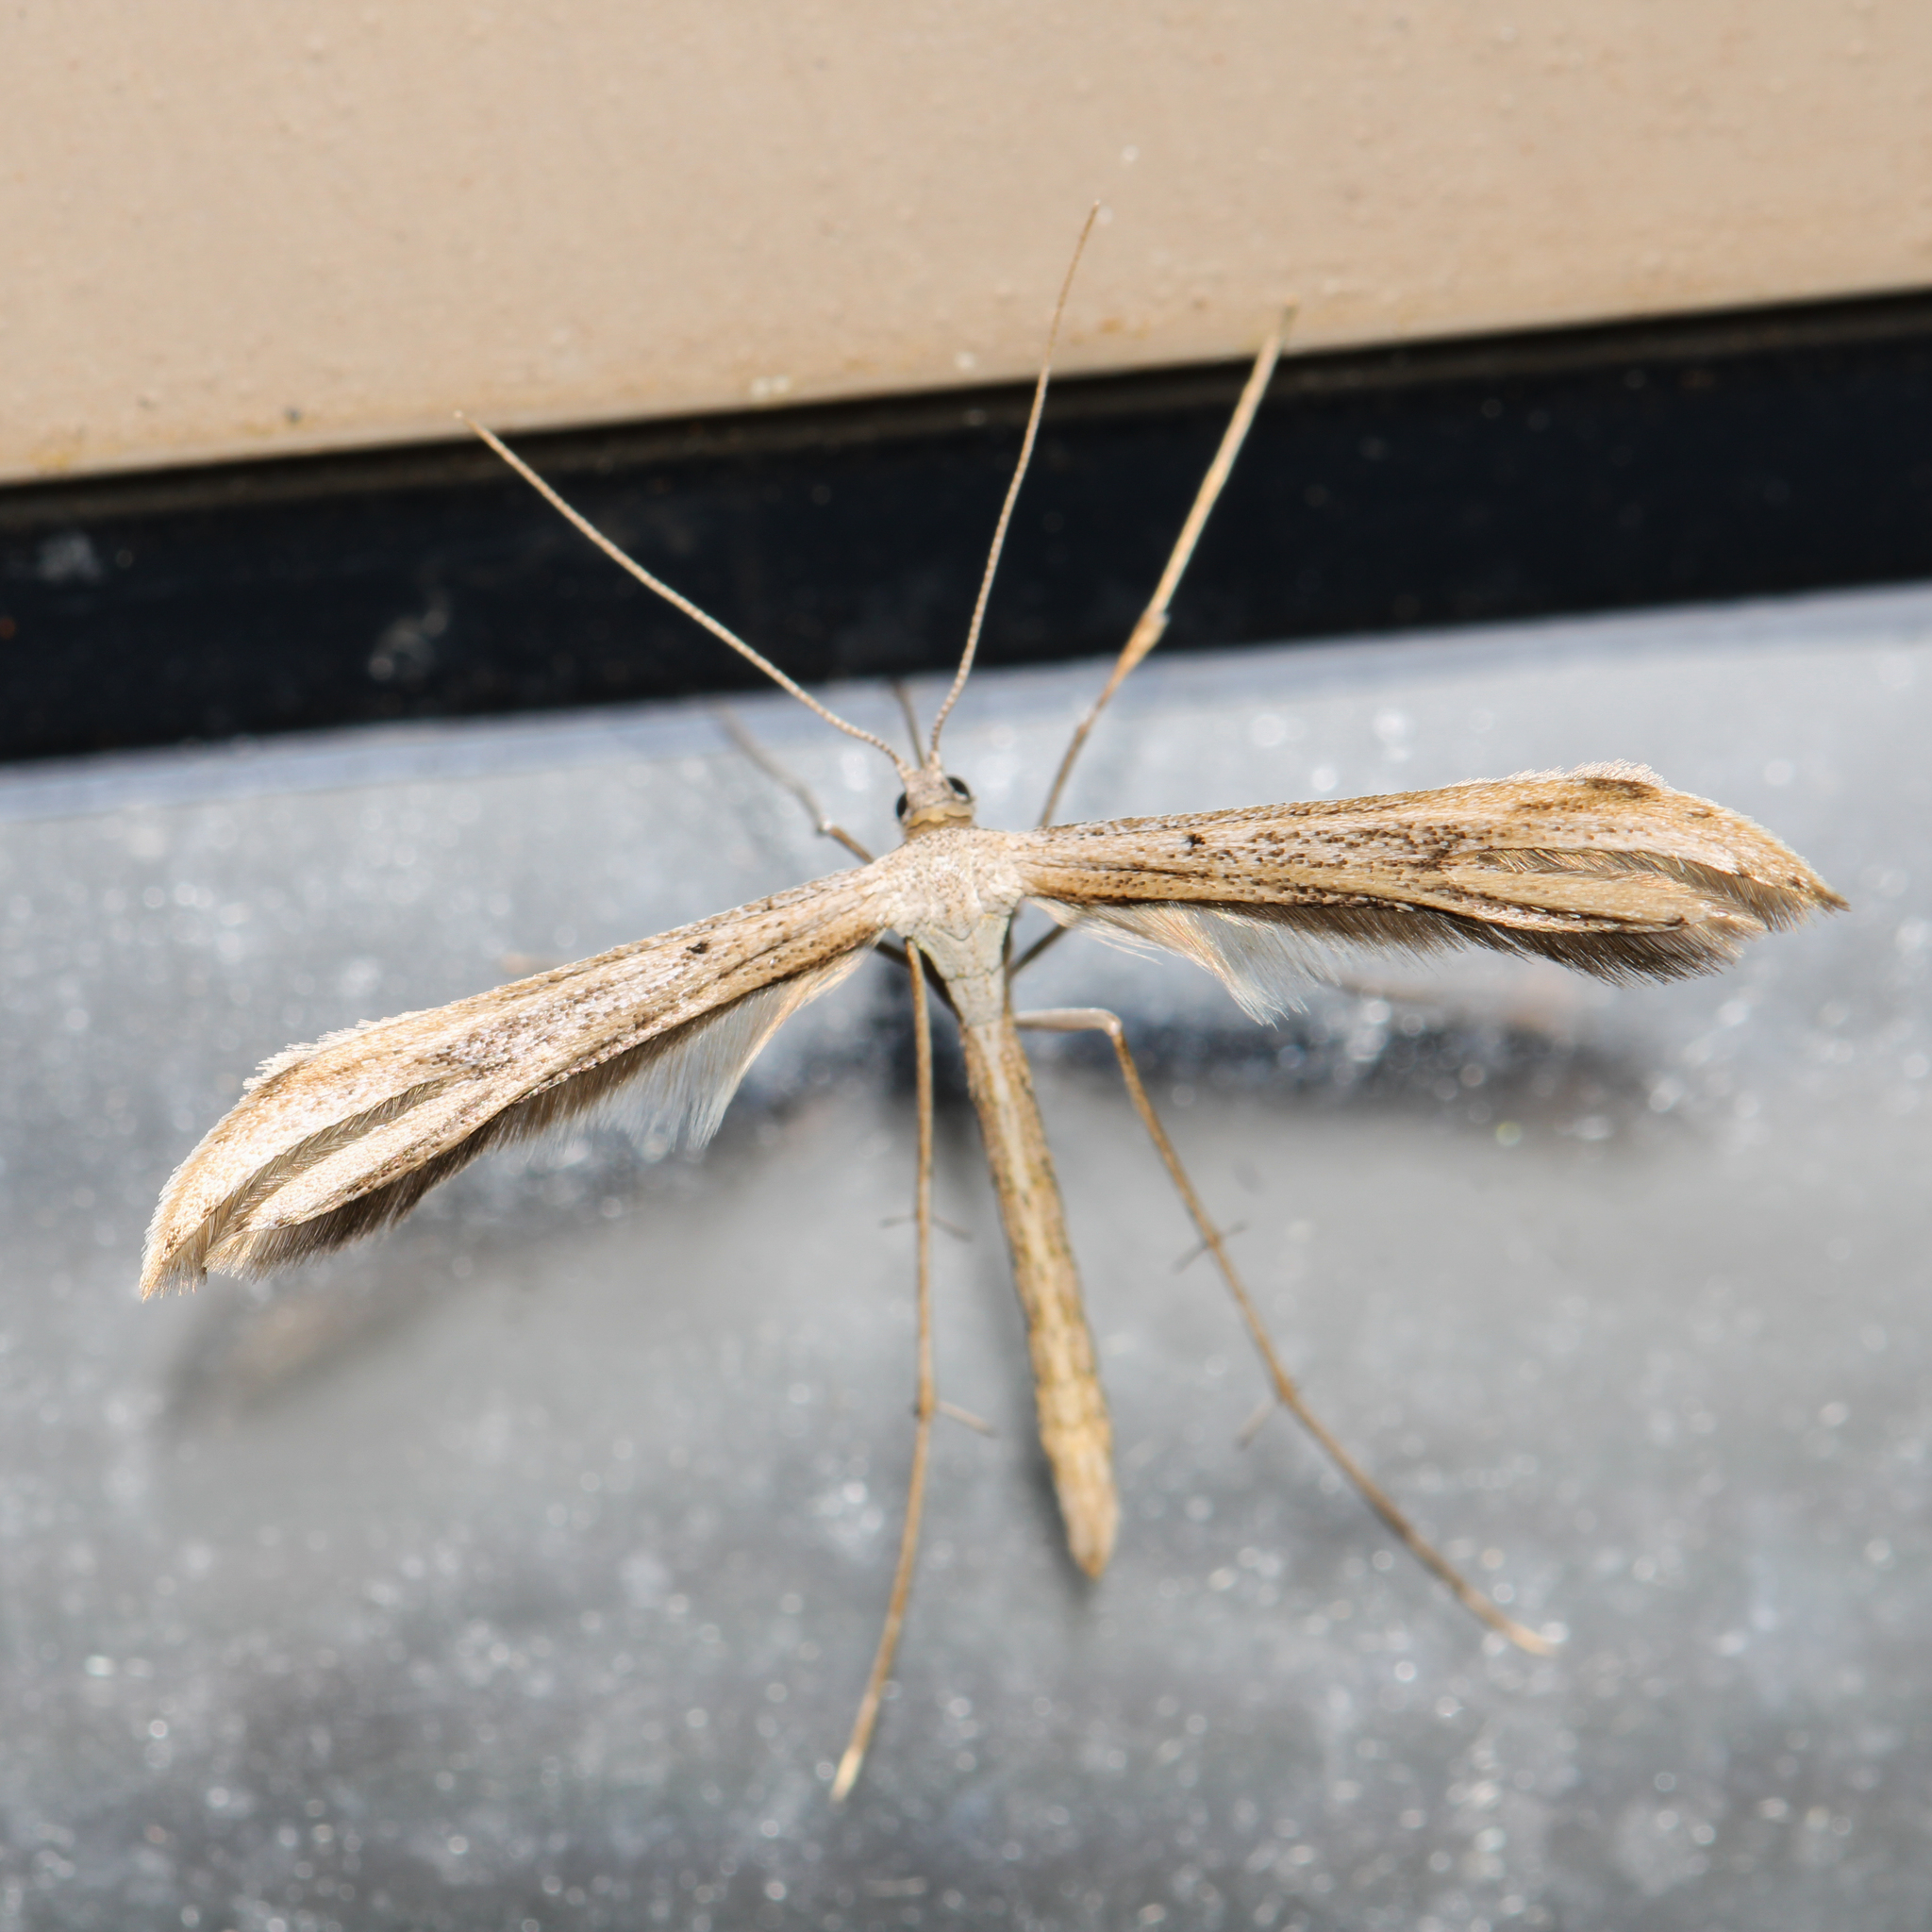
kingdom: Animalia
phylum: Arthropoda
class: Insecta
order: Lepidoptera
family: Pterophoridae
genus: Emmelina
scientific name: Emmelina monodactyla
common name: Common plume
